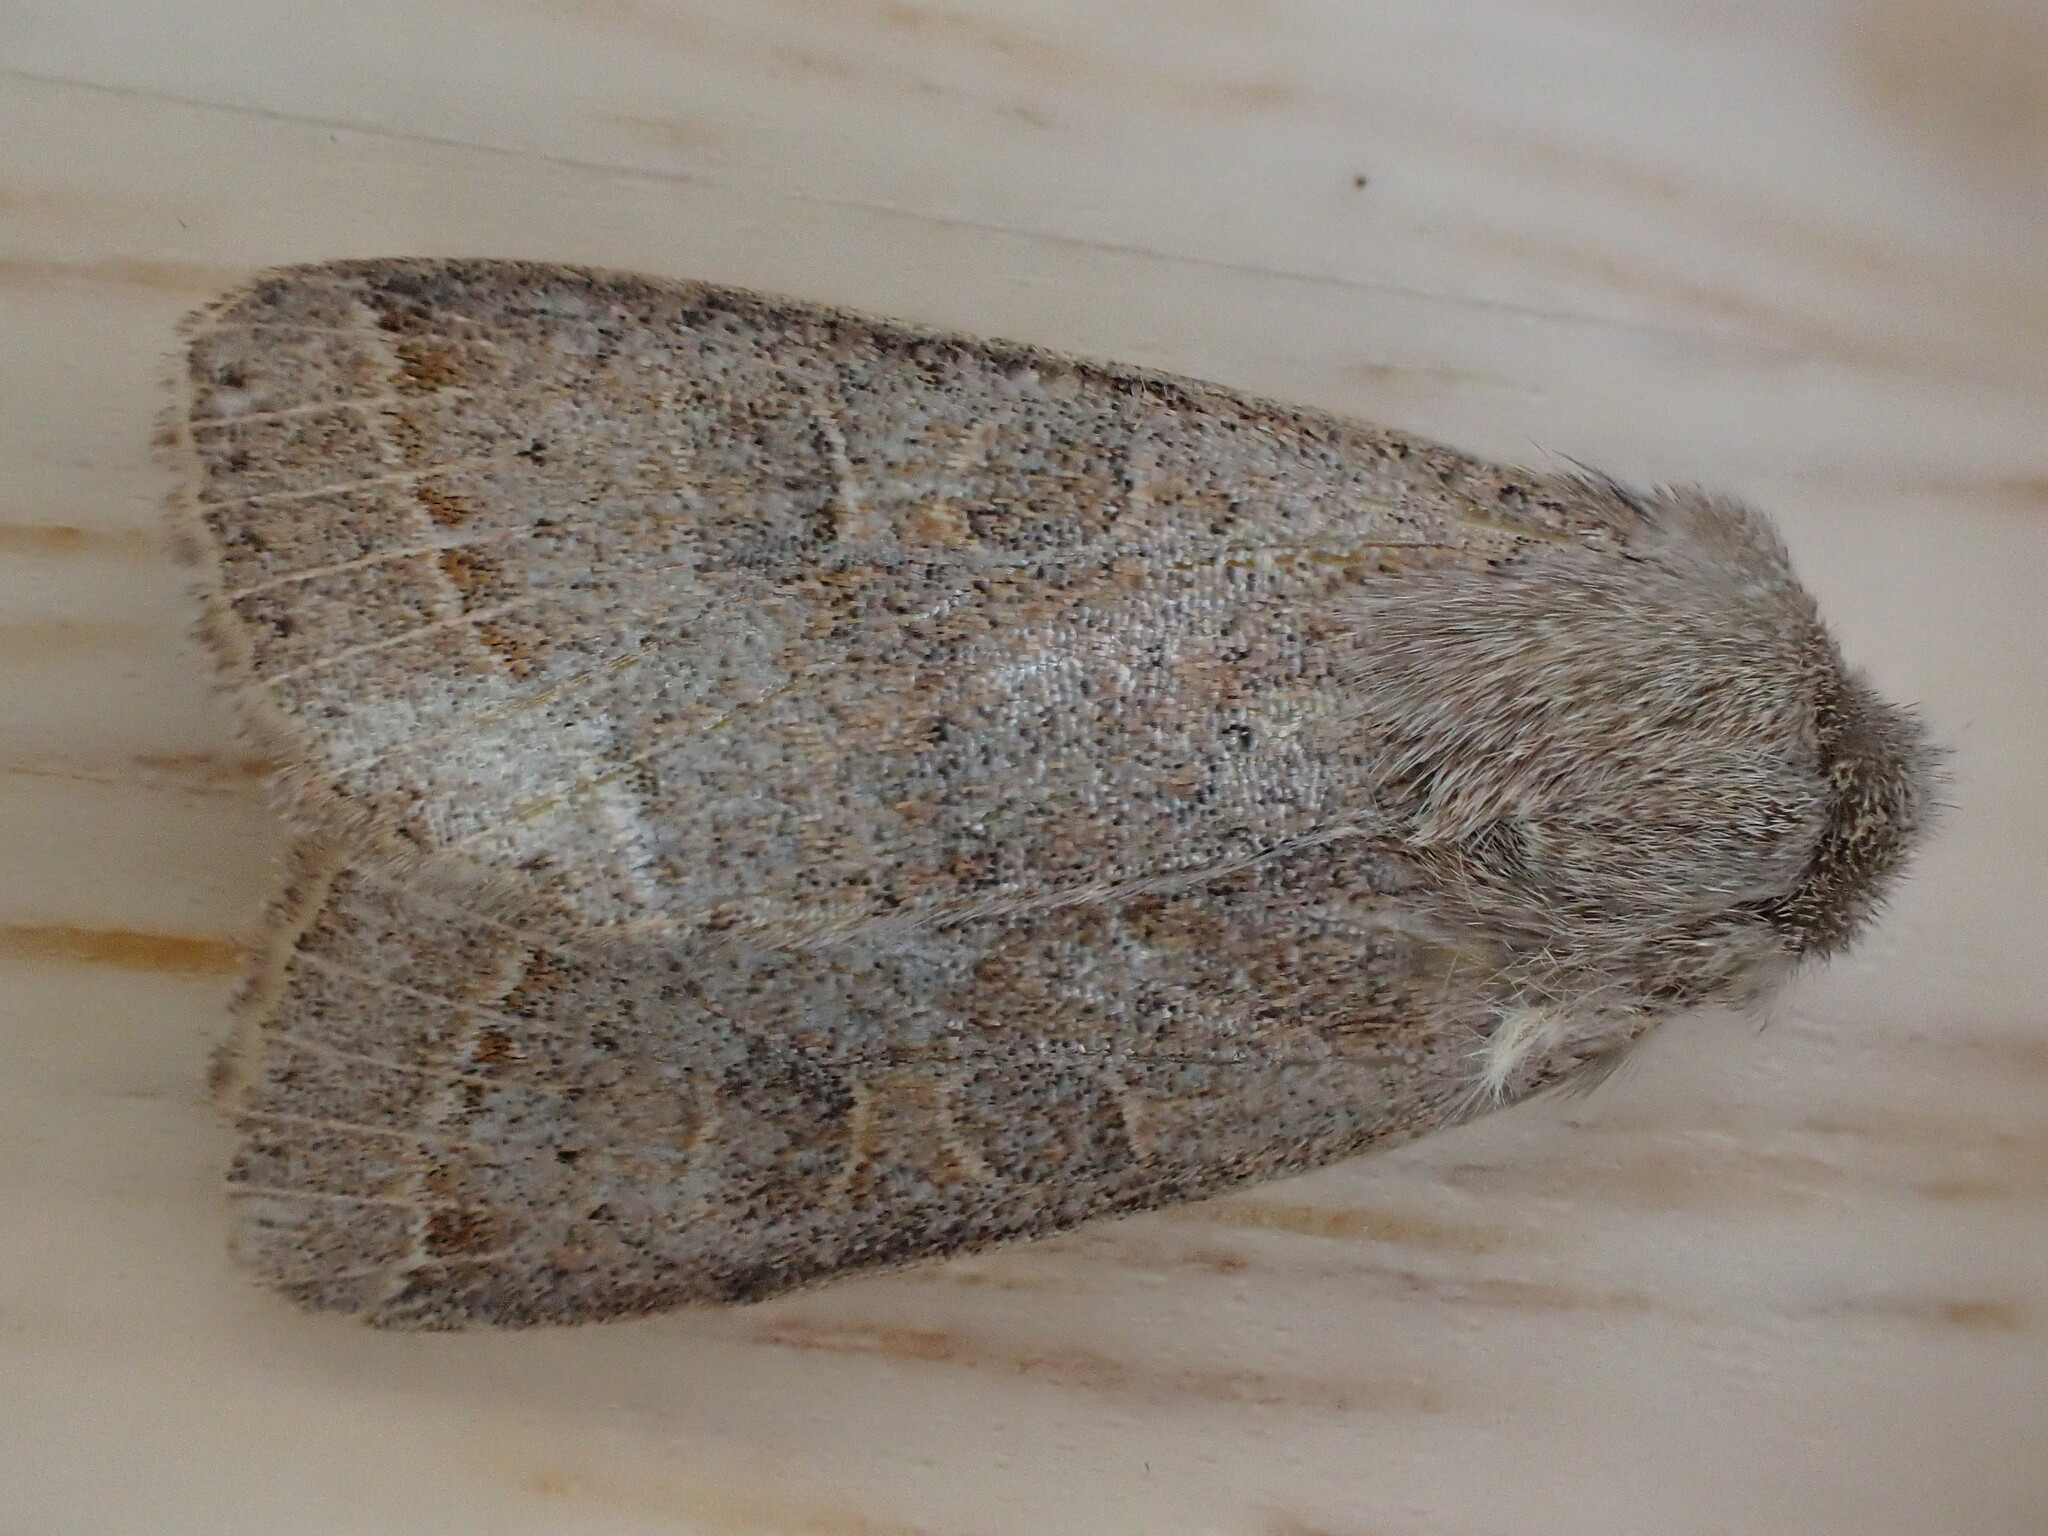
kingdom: Animalia
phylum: Arthropoda
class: Insecta
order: Lepidoptera
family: Noctuidae
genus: Orthosia
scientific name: Orthosia cerasi
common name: Common quaker
